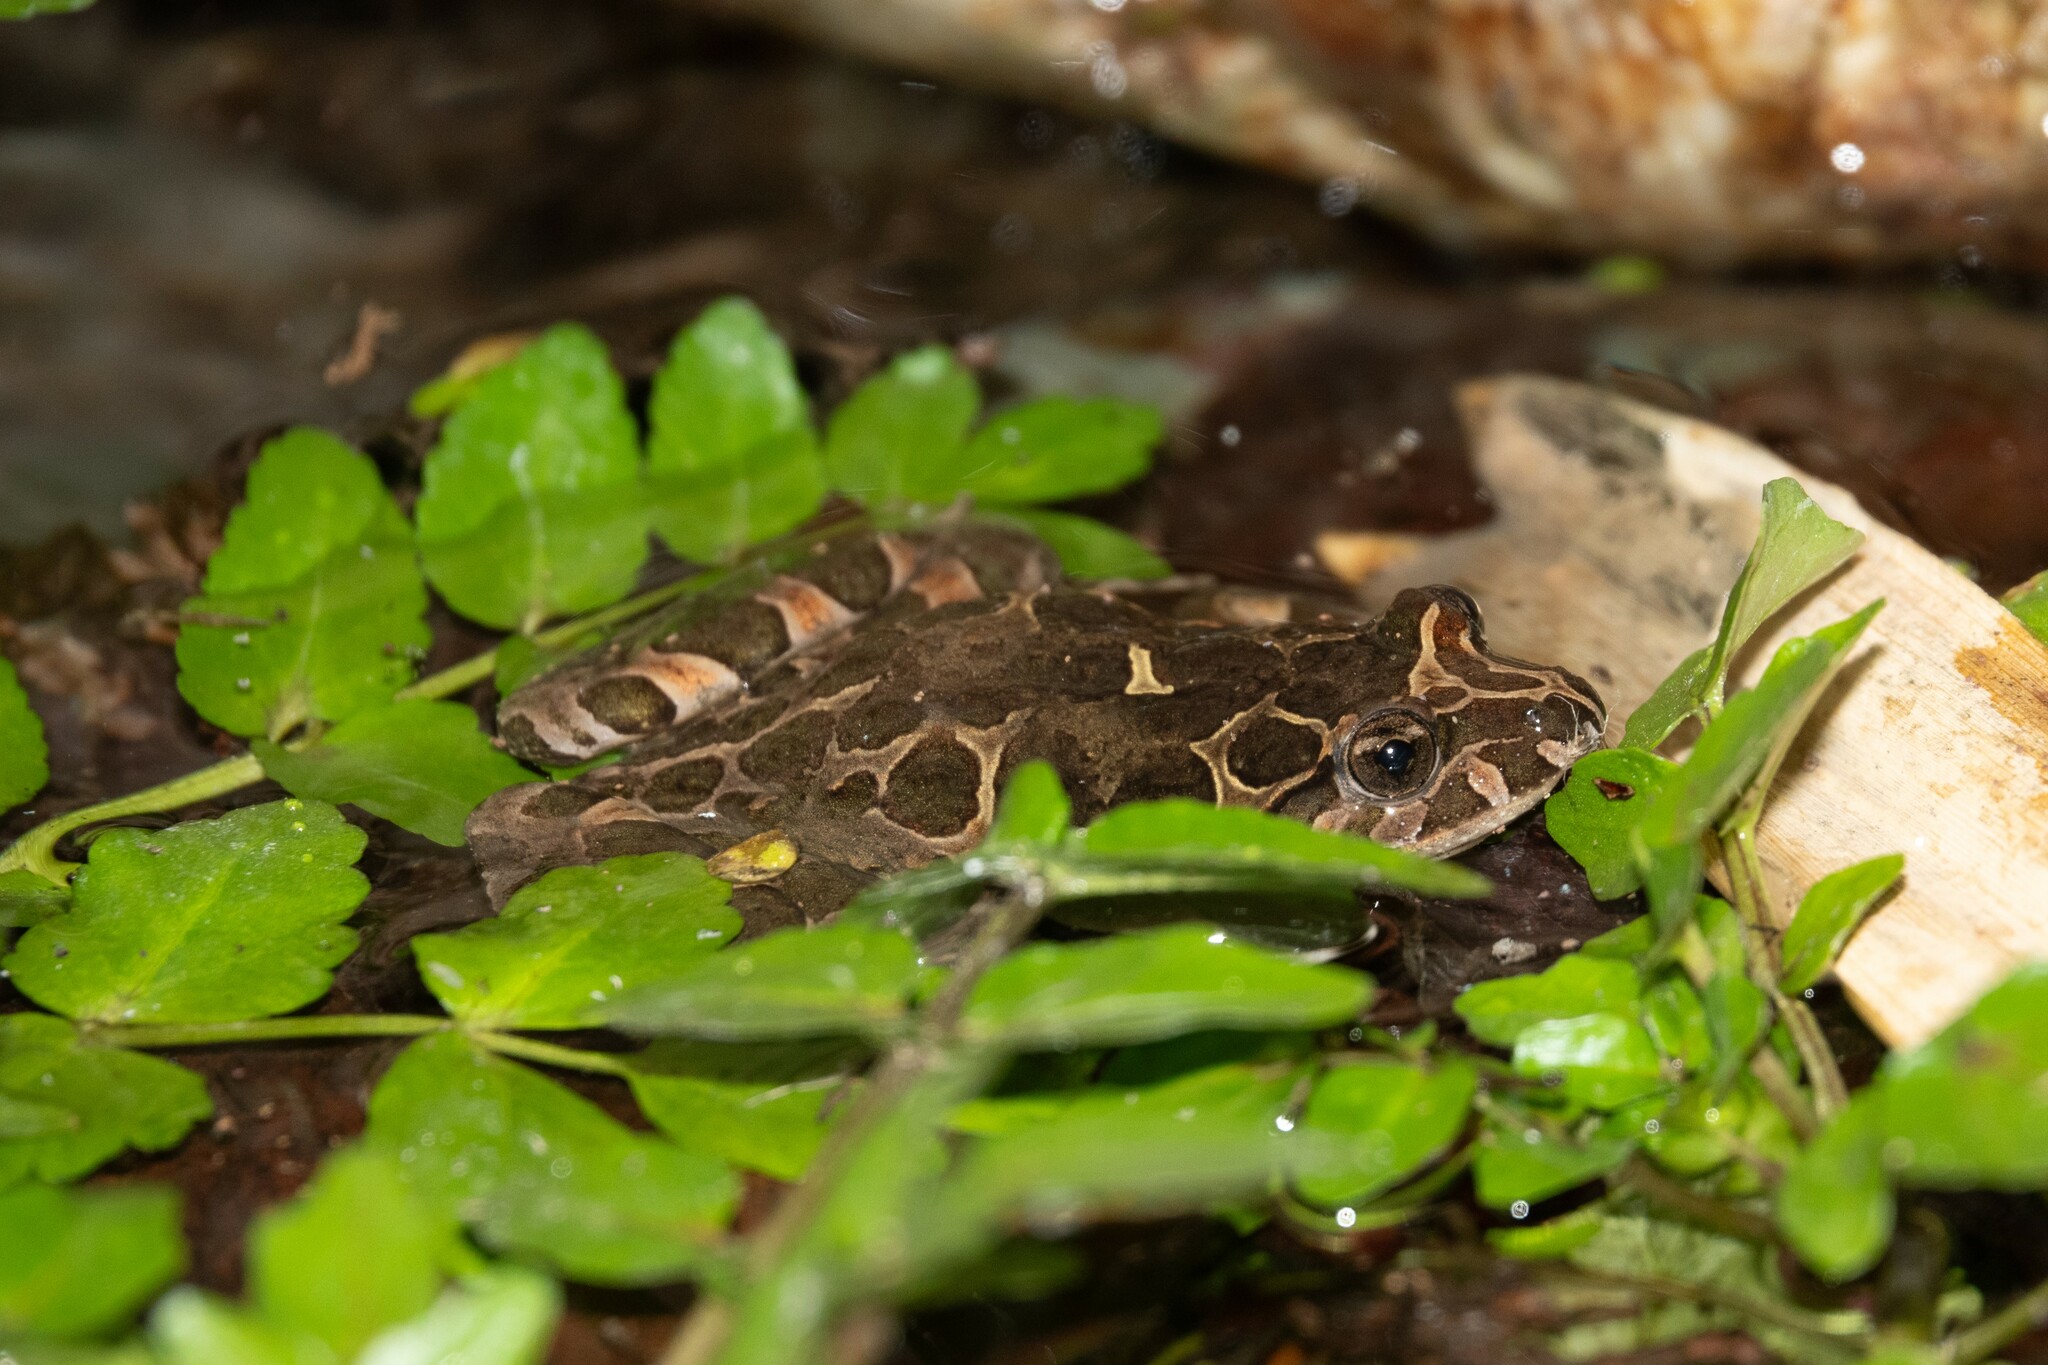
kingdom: Animalia
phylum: Chordata
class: Amphibia
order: Anura
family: Alytidae
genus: Discoglossus
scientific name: Discoglossus pictus
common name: Painted frog
